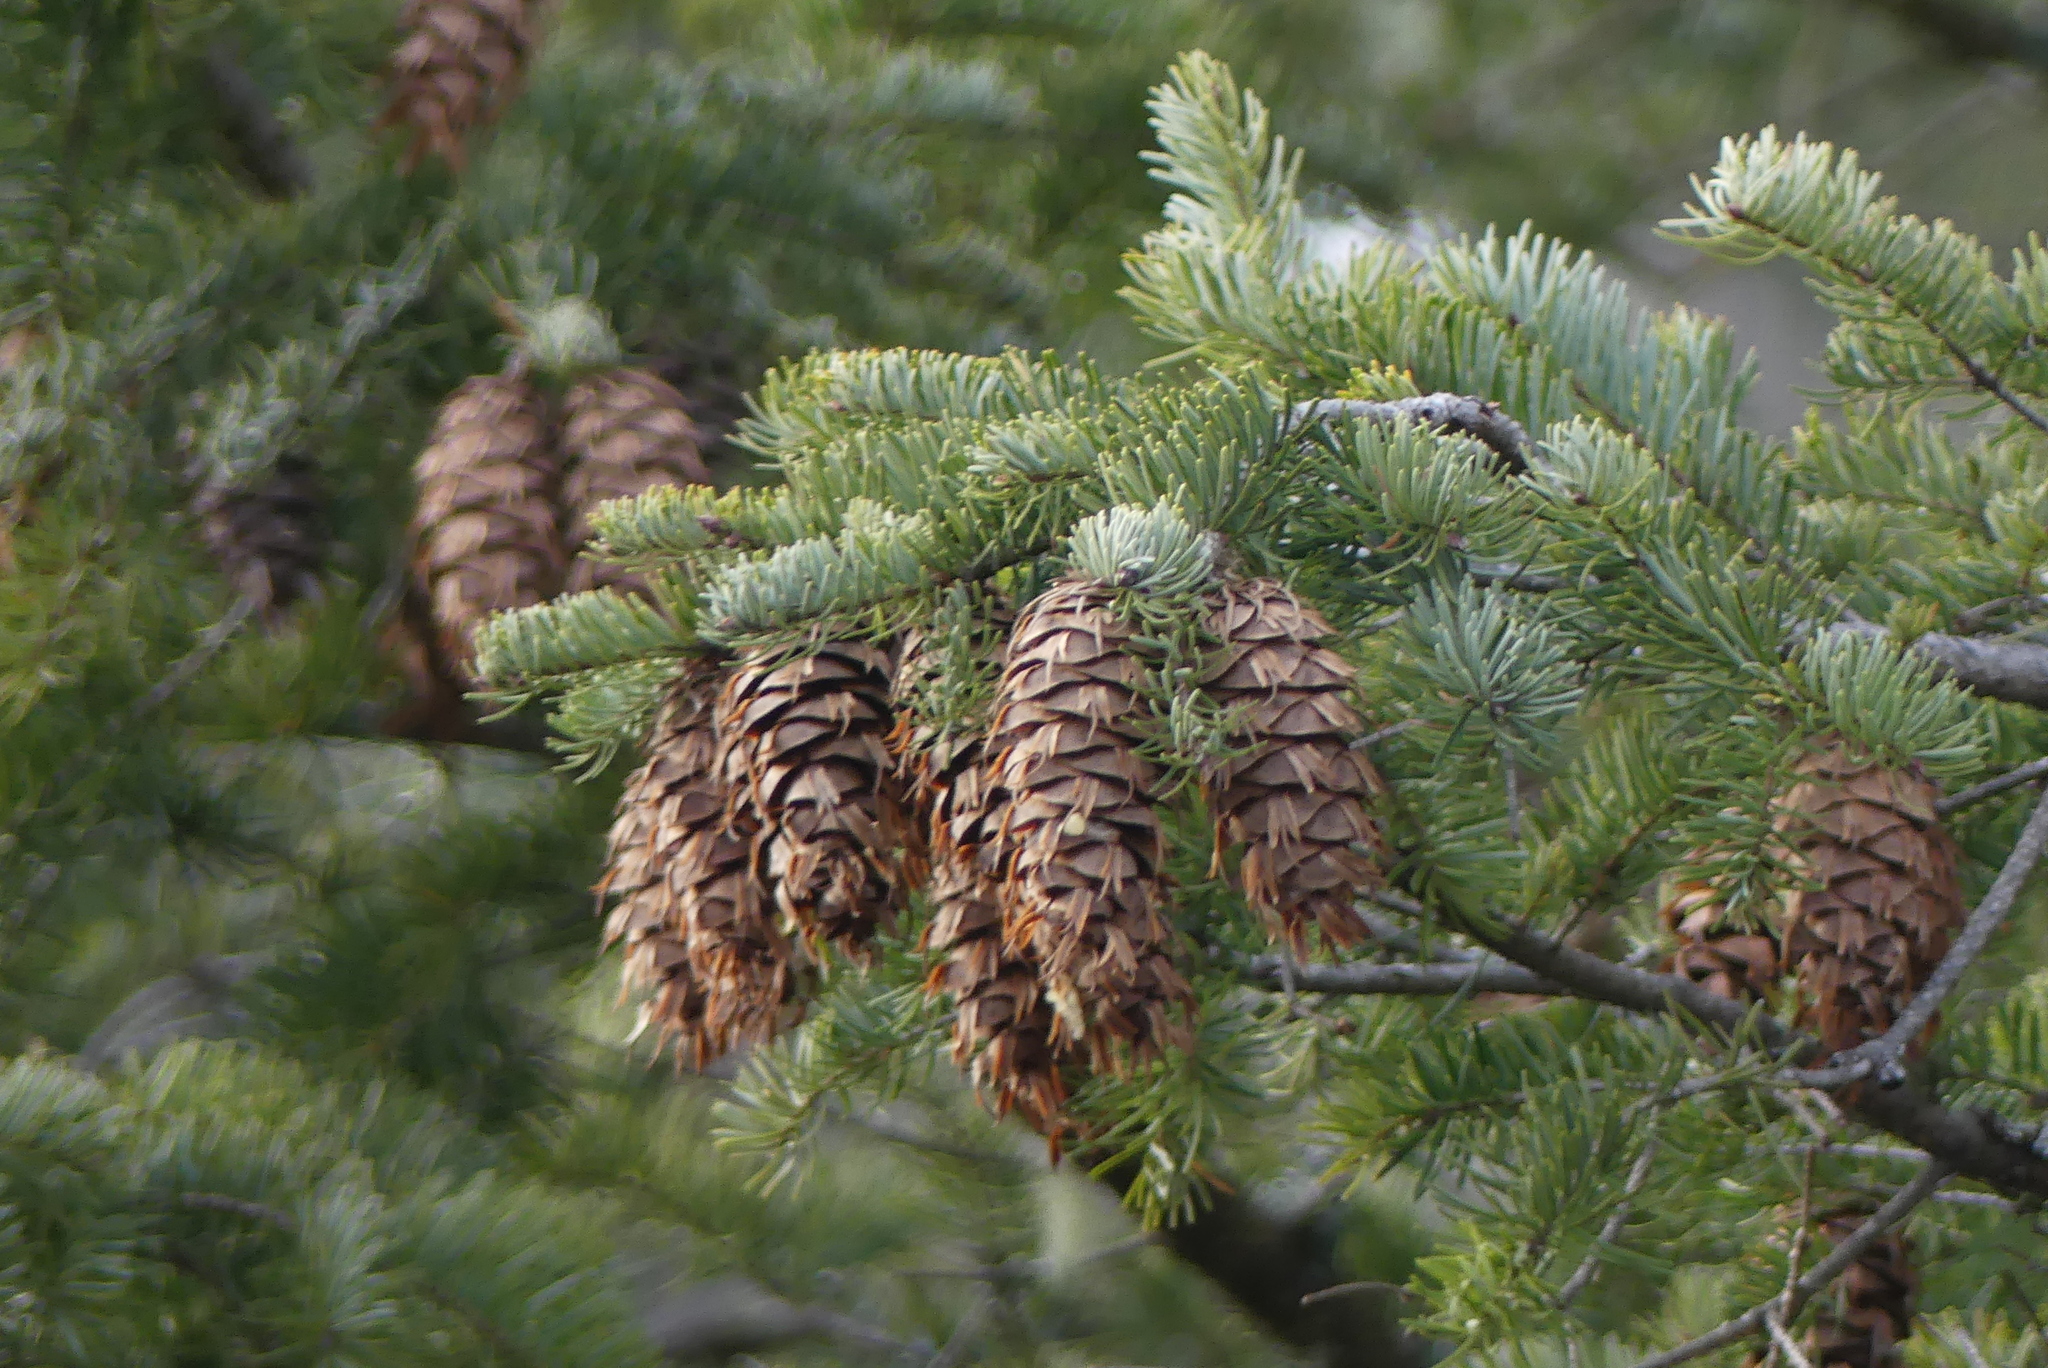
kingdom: Plantae
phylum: Tracheophyta
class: Pinopsida
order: Pinales
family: Pinaceae
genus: Pseudotsuga
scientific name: Pseudotsuga menziesii
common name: Douglas fir
